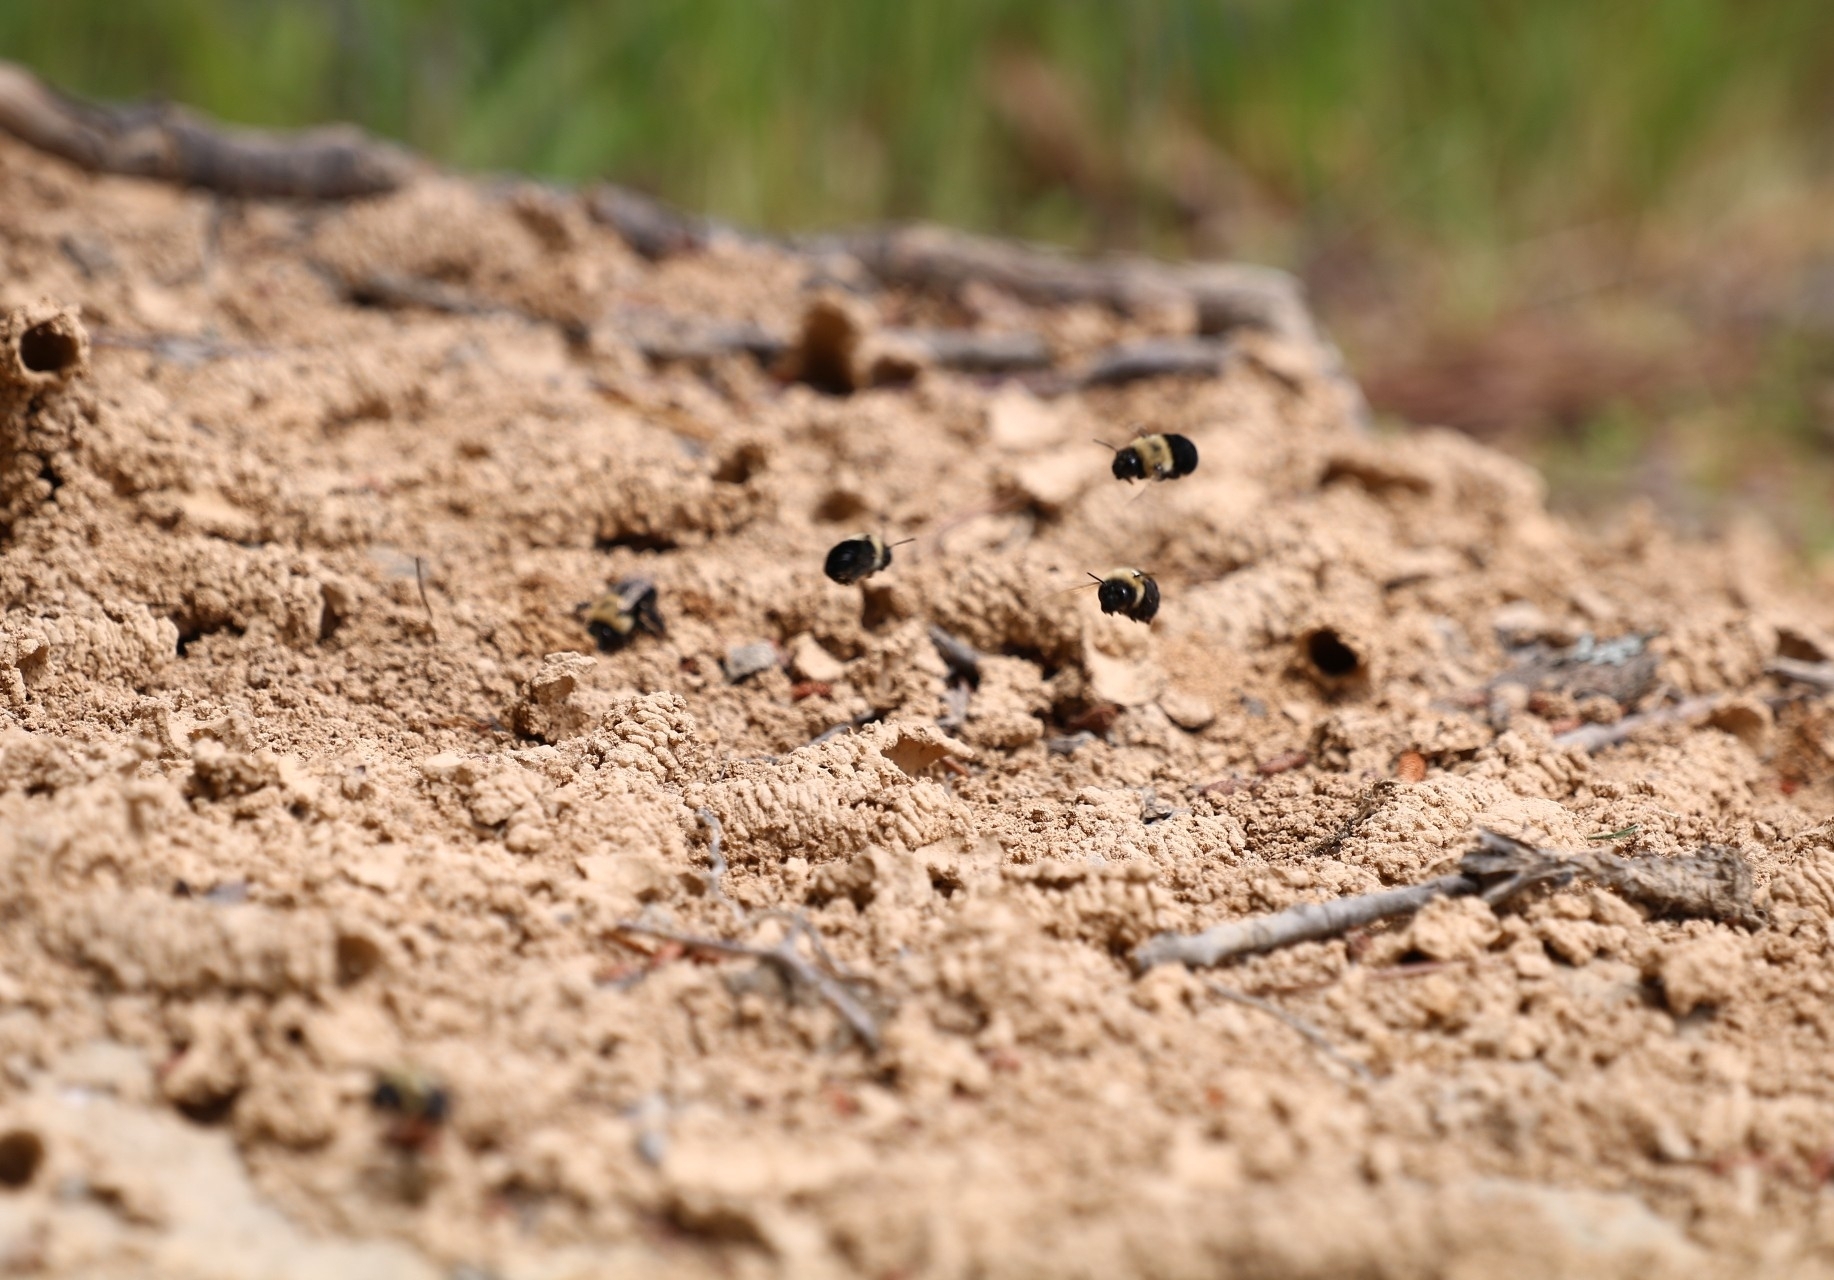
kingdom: Animalia
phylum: Arthropoda
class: Insecta
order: Hymenoptera
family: Apidae
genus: Anthophora
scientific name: Anthophora abrupta
